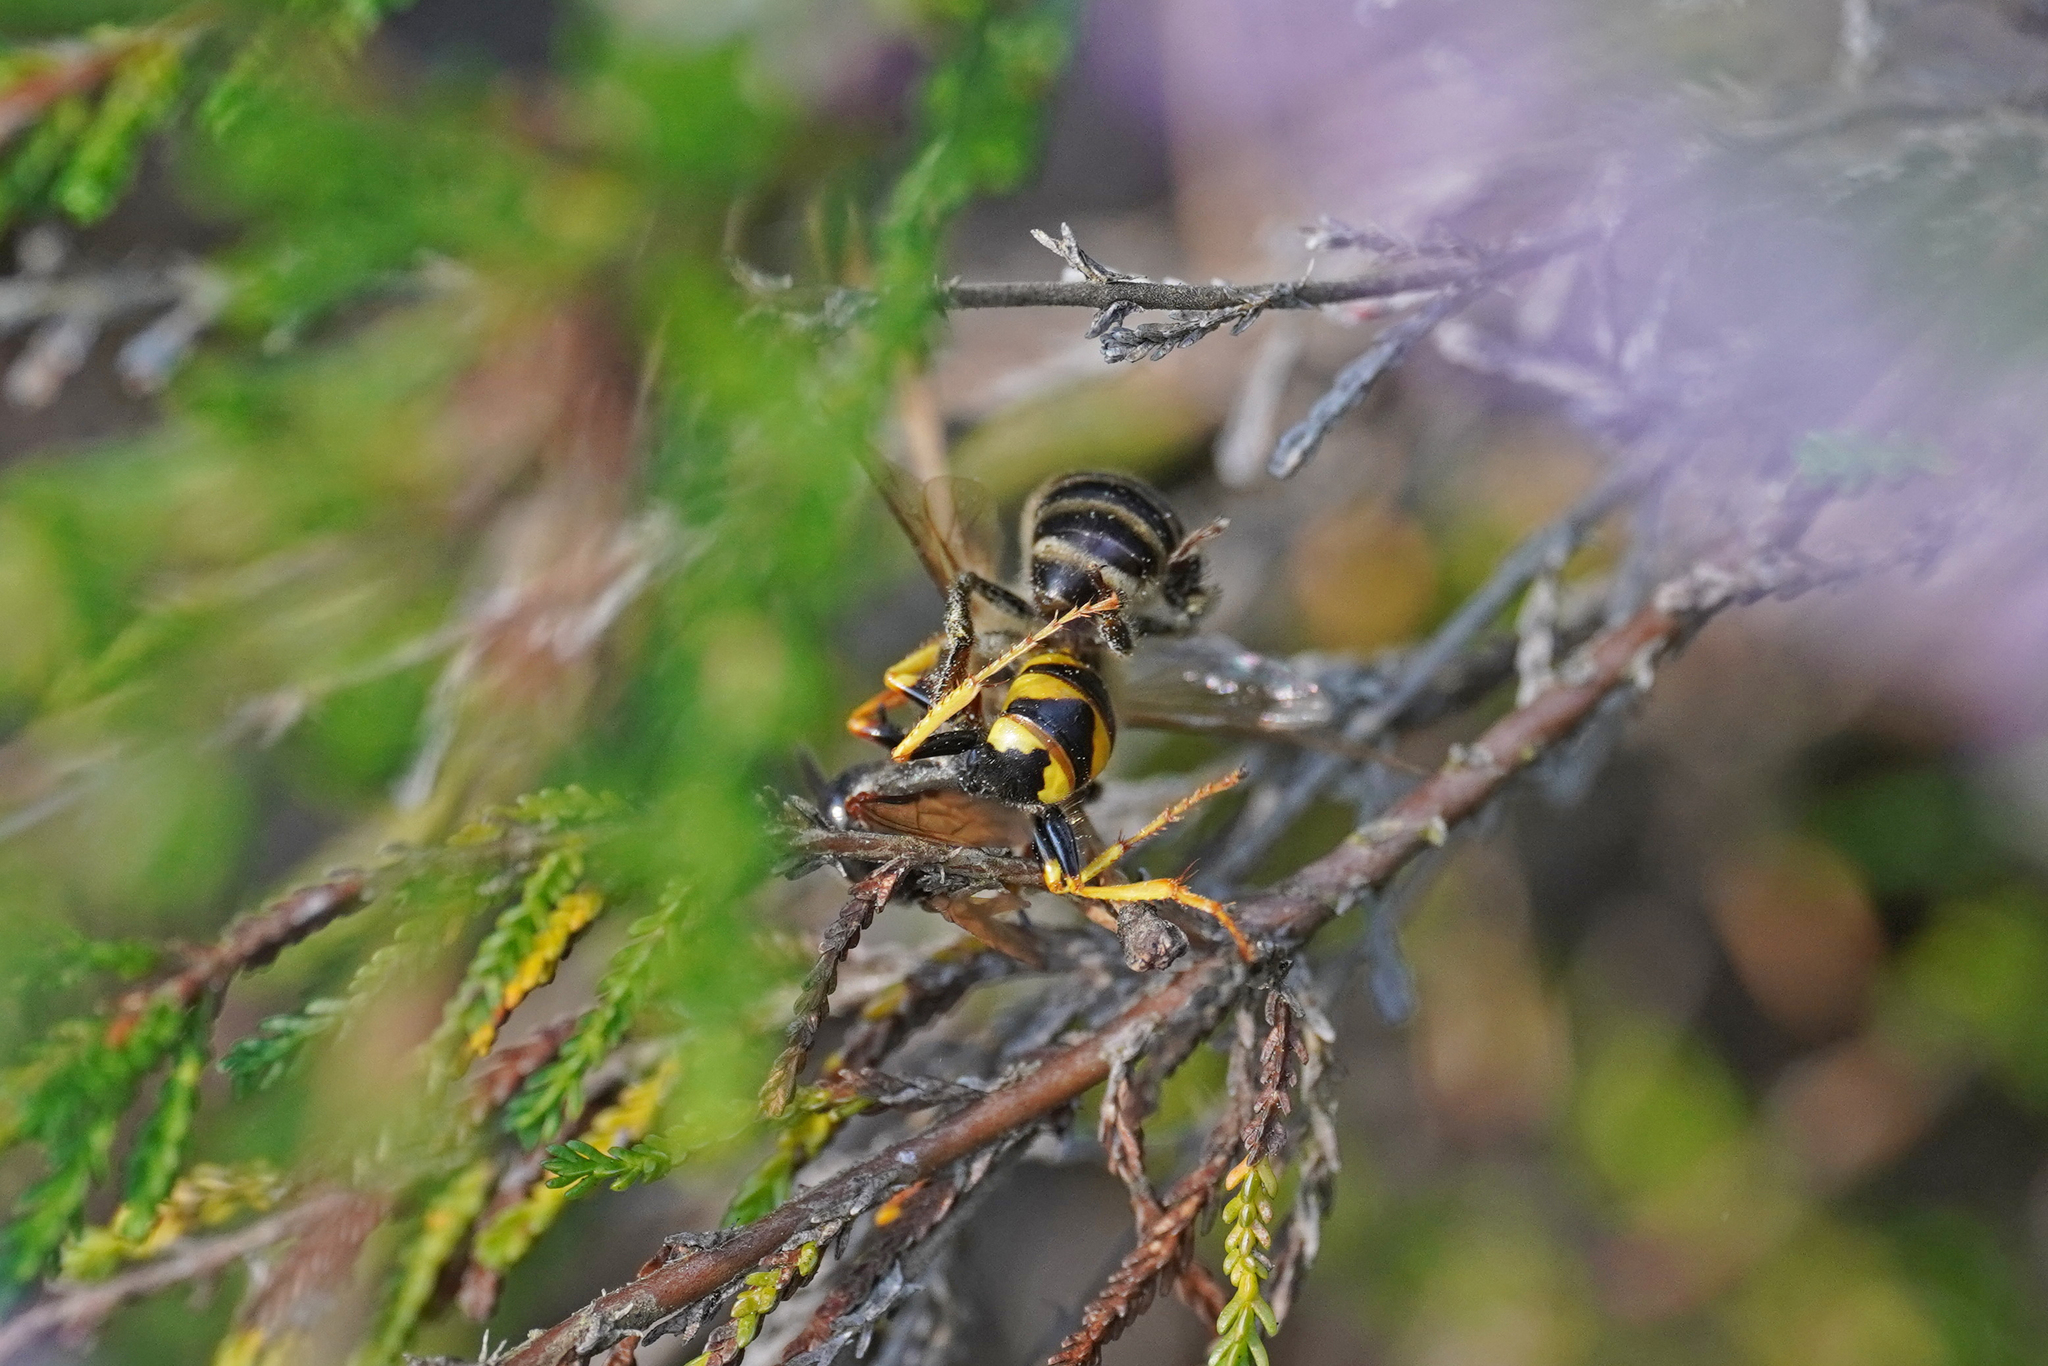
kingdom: Animalia
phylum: Arthropoda
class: Insecta
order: Hymenoptera
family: Crabronidae
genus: Philanthus
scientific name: Philanthus triangulum
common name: Bee wolf
